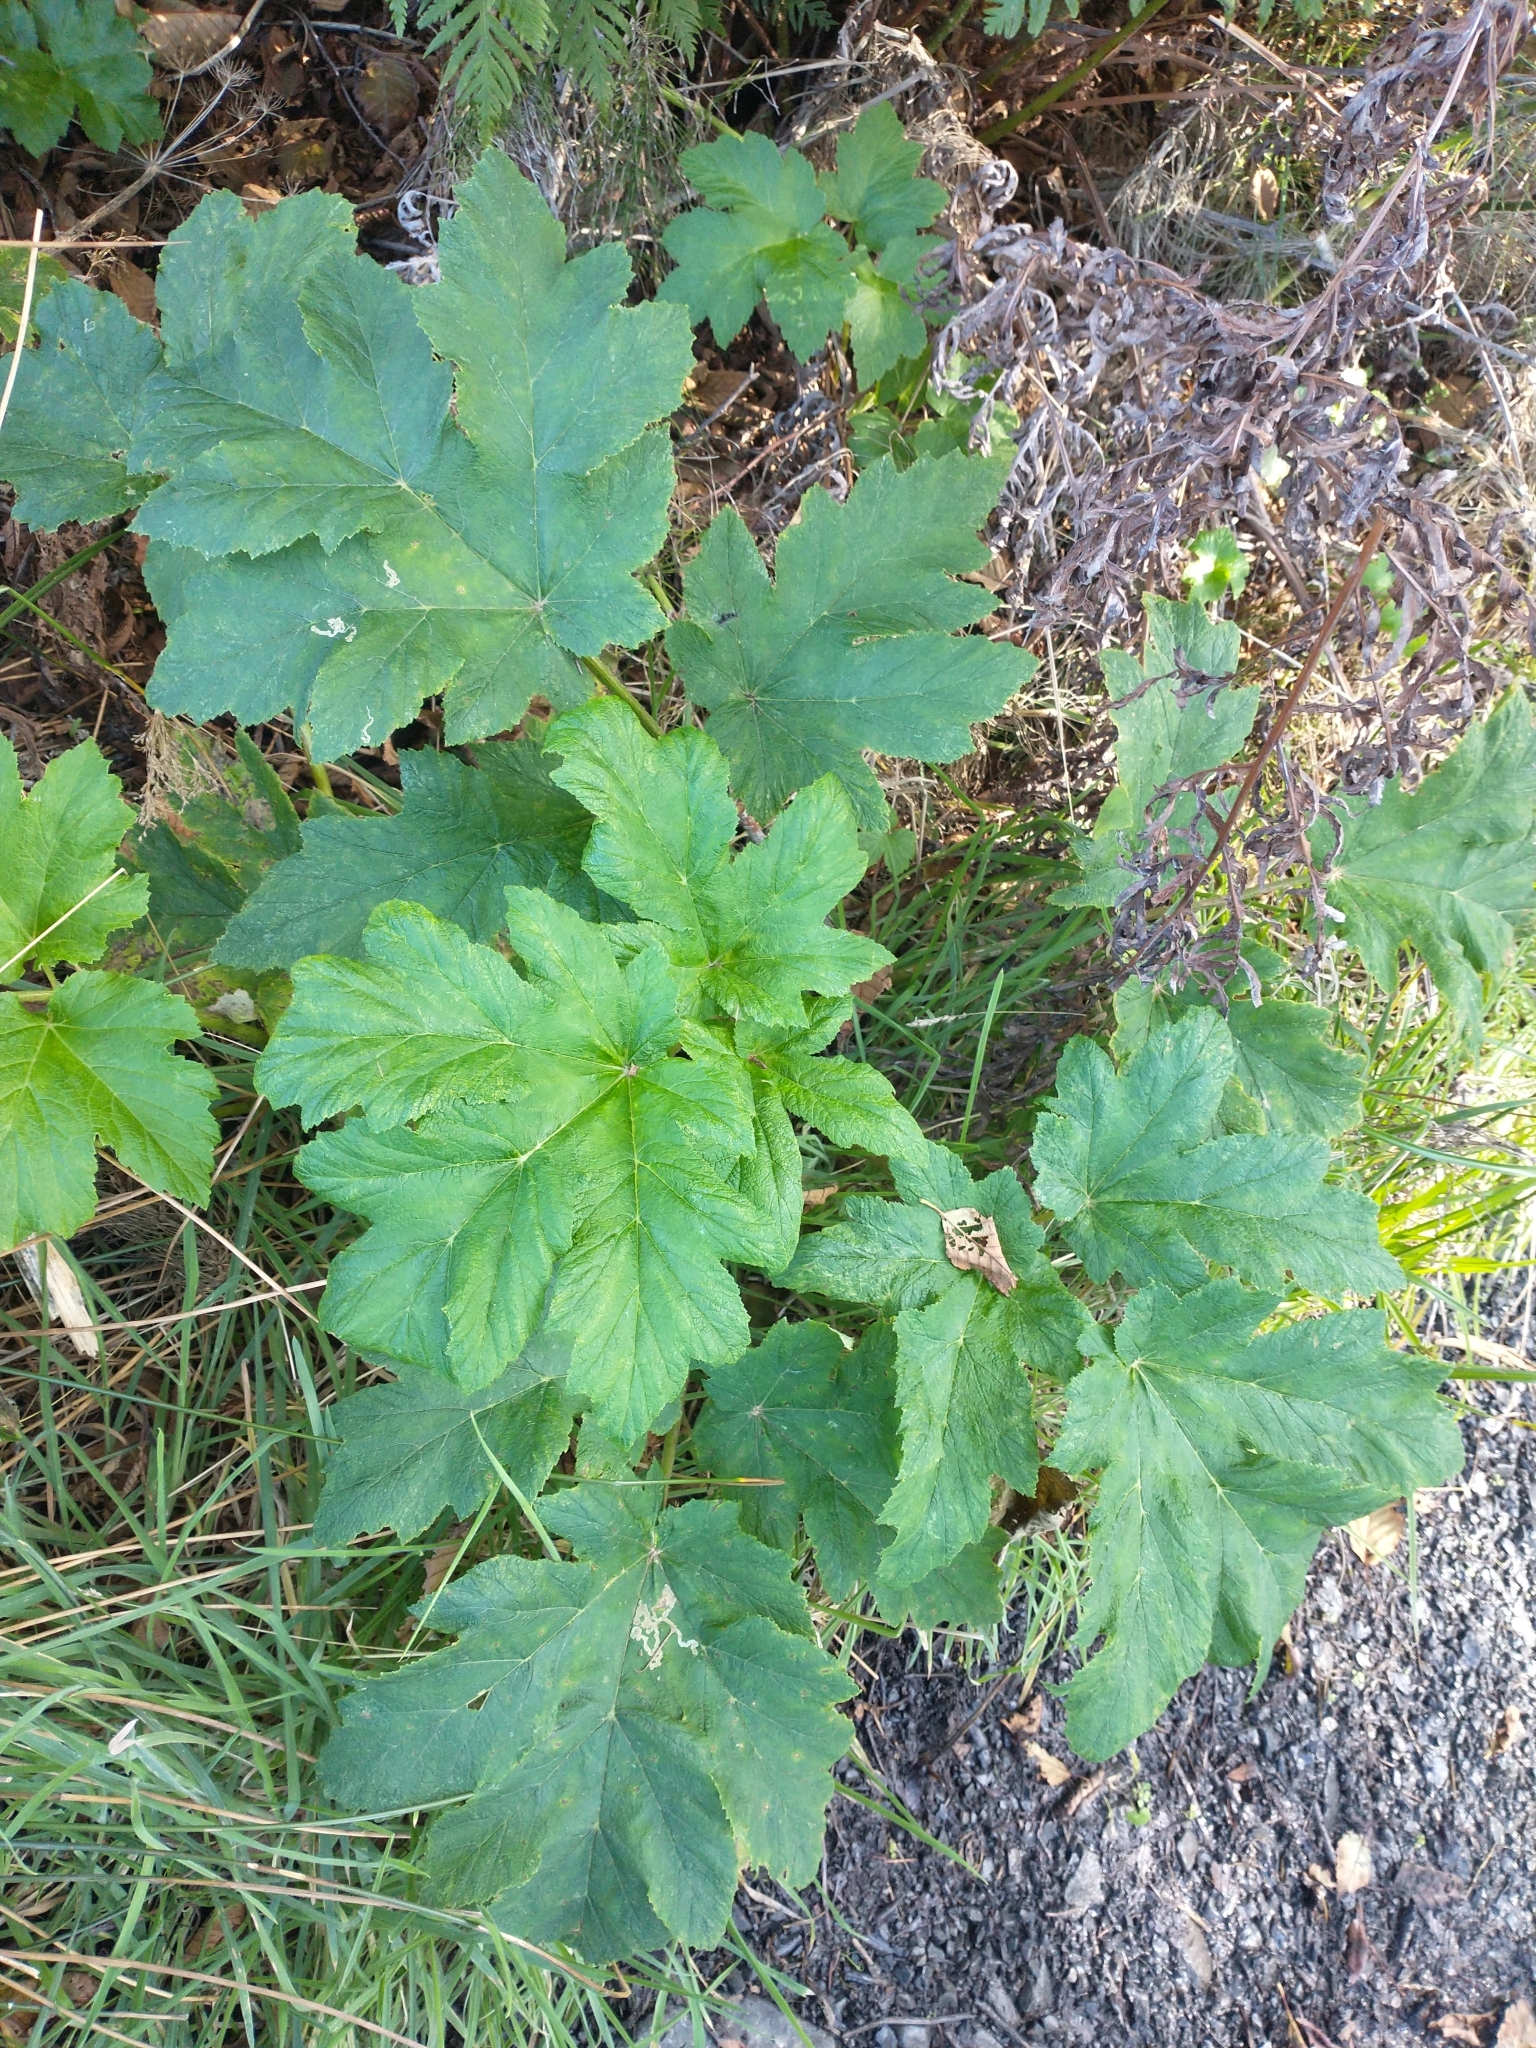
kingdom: Plantae
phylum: Tracheophyta
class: Magnoliopsida
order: Apiales
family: Apiaceae
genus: Heracleum
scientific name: Heracleum maximum
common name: American cow parsnip
